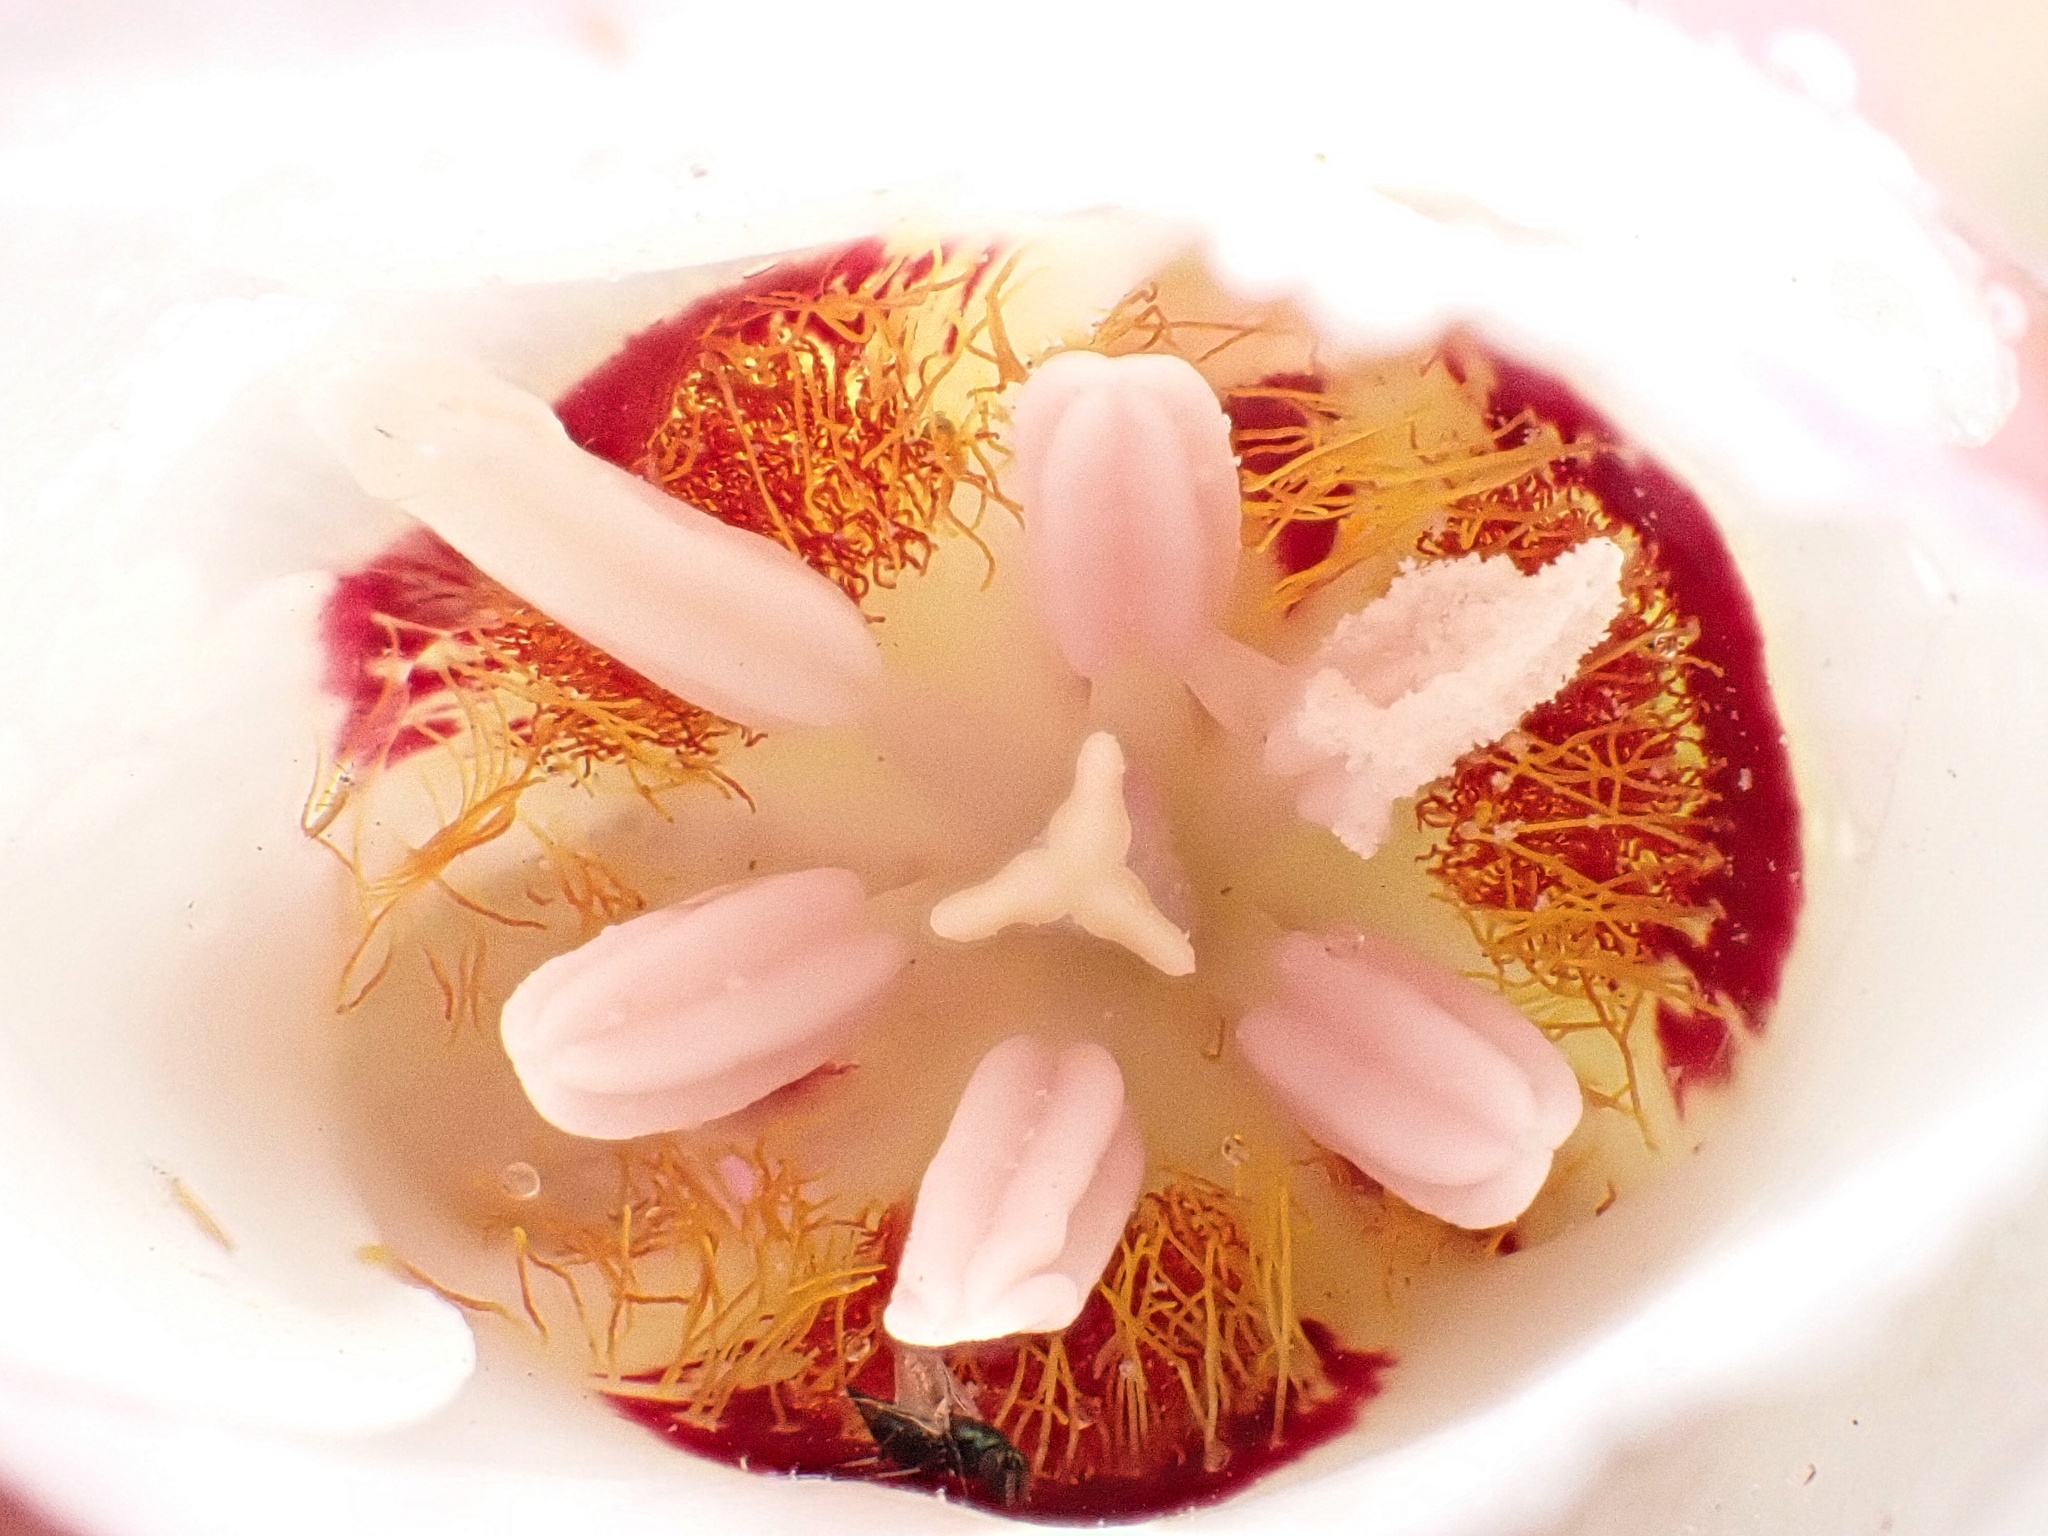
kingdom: Plantae
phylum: Tracheophyta
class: Liliopsida
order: Liliales
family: Liliaceae
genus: Calochortus
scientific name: Calochortus dunnii
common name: Dunn's mariposa-lily
